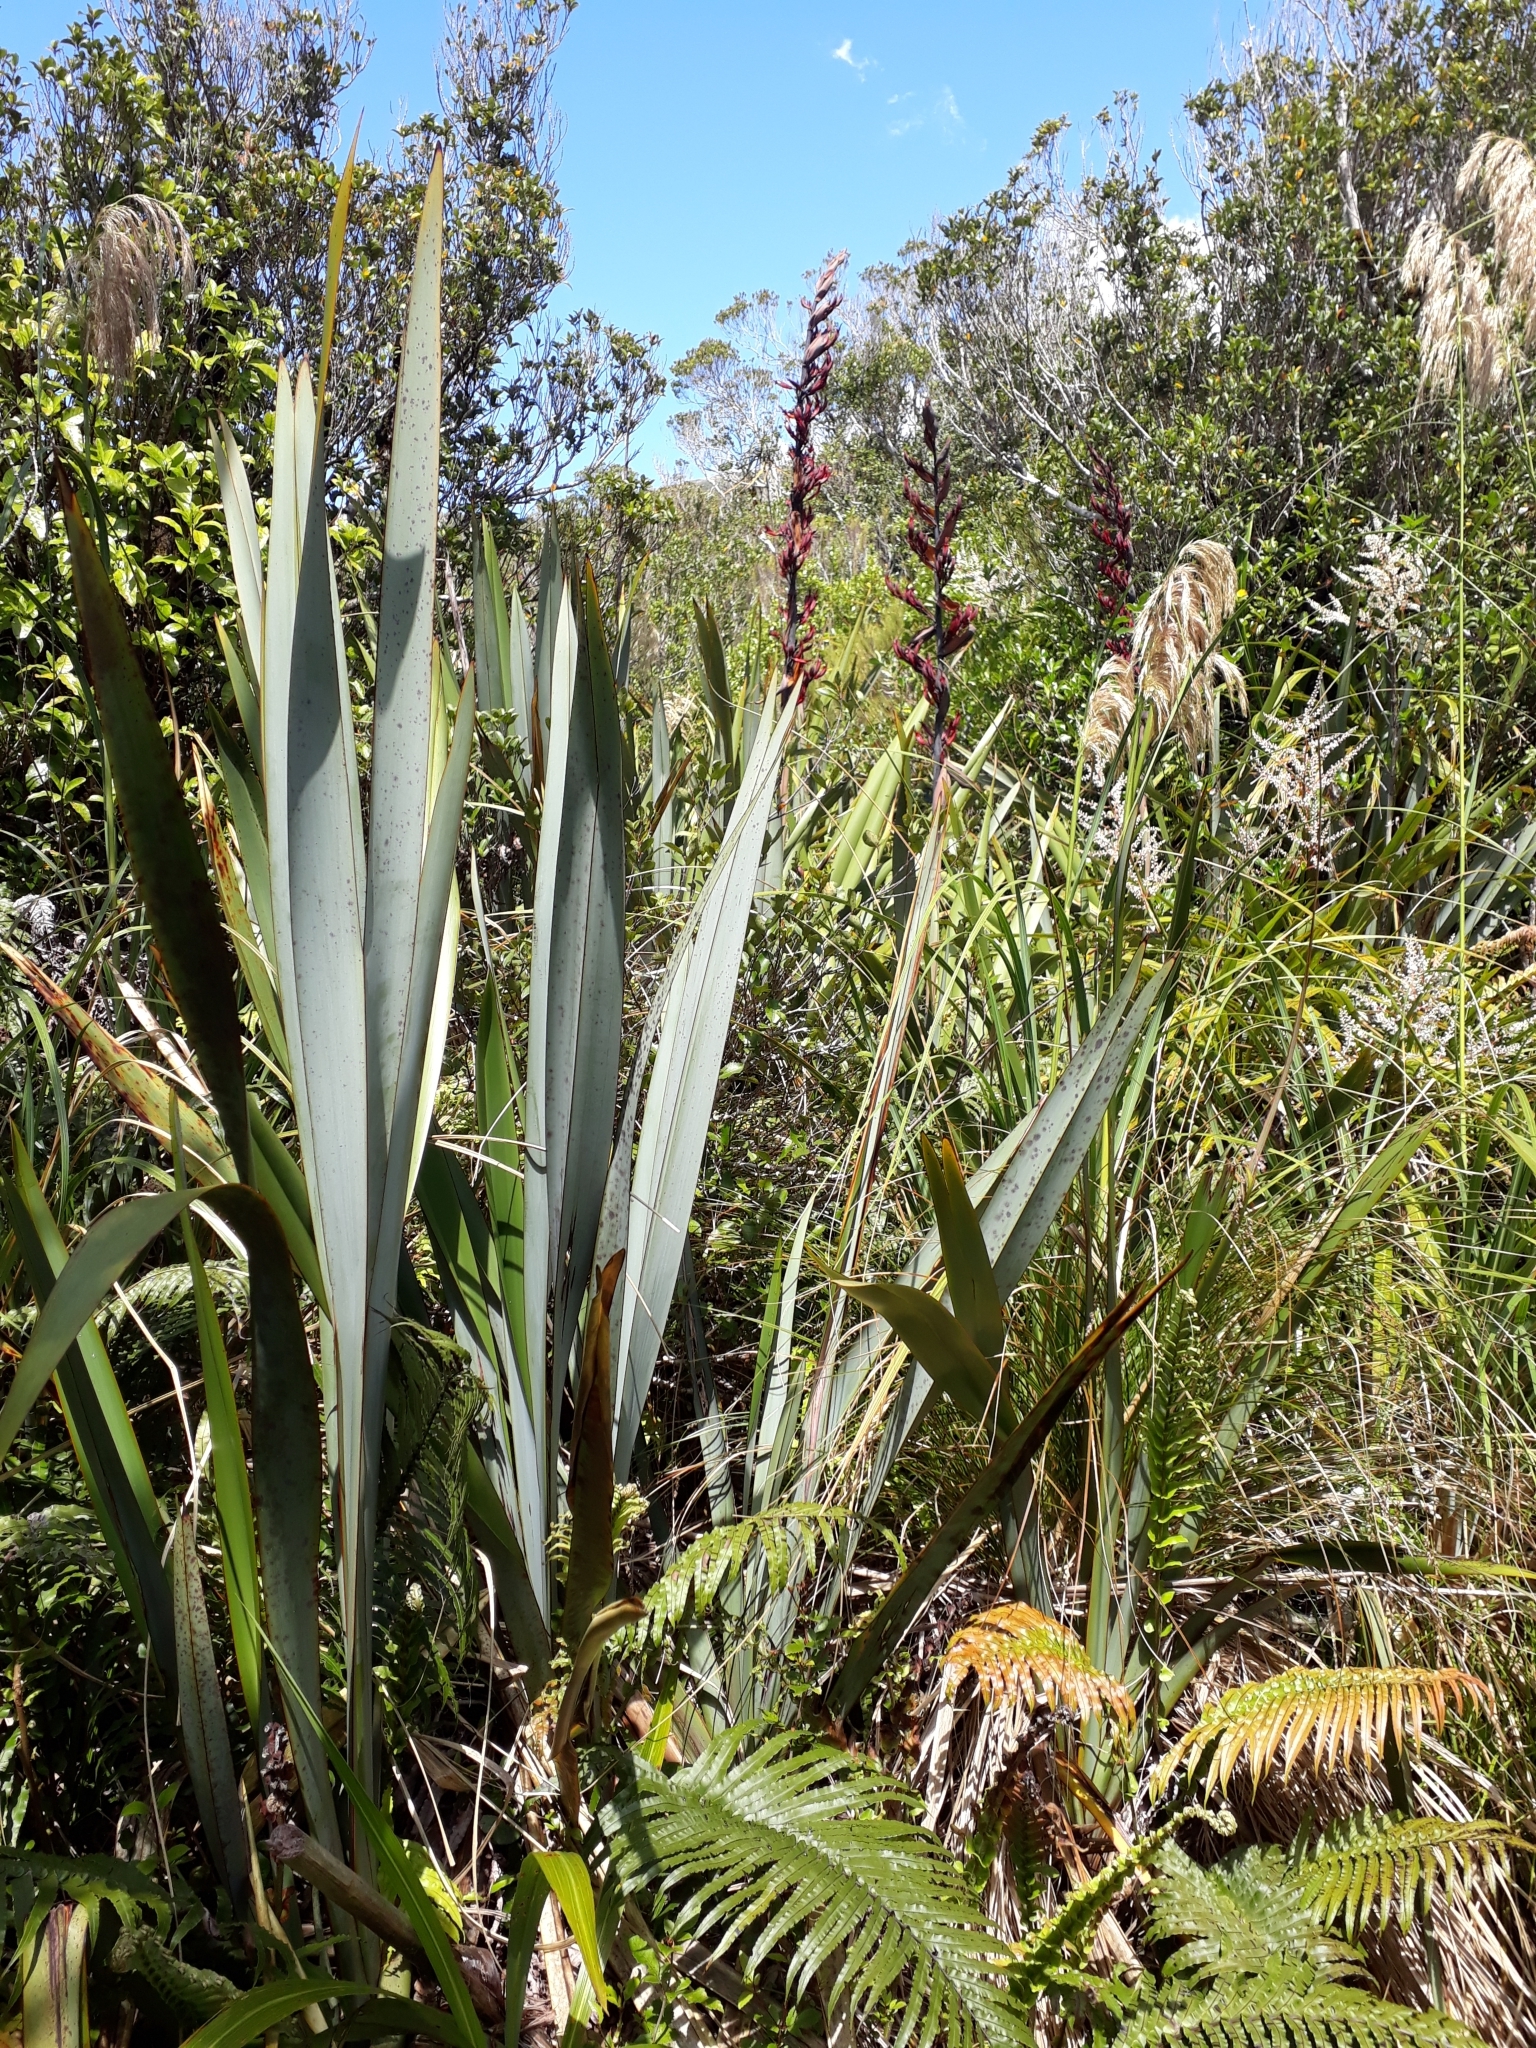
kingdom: Plantae
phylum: Tracheophyta
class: Liliopsida
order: Asparagales
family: Asphodelaceae
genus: Phormium
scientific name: Phormium tenax
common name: New zealand flax
